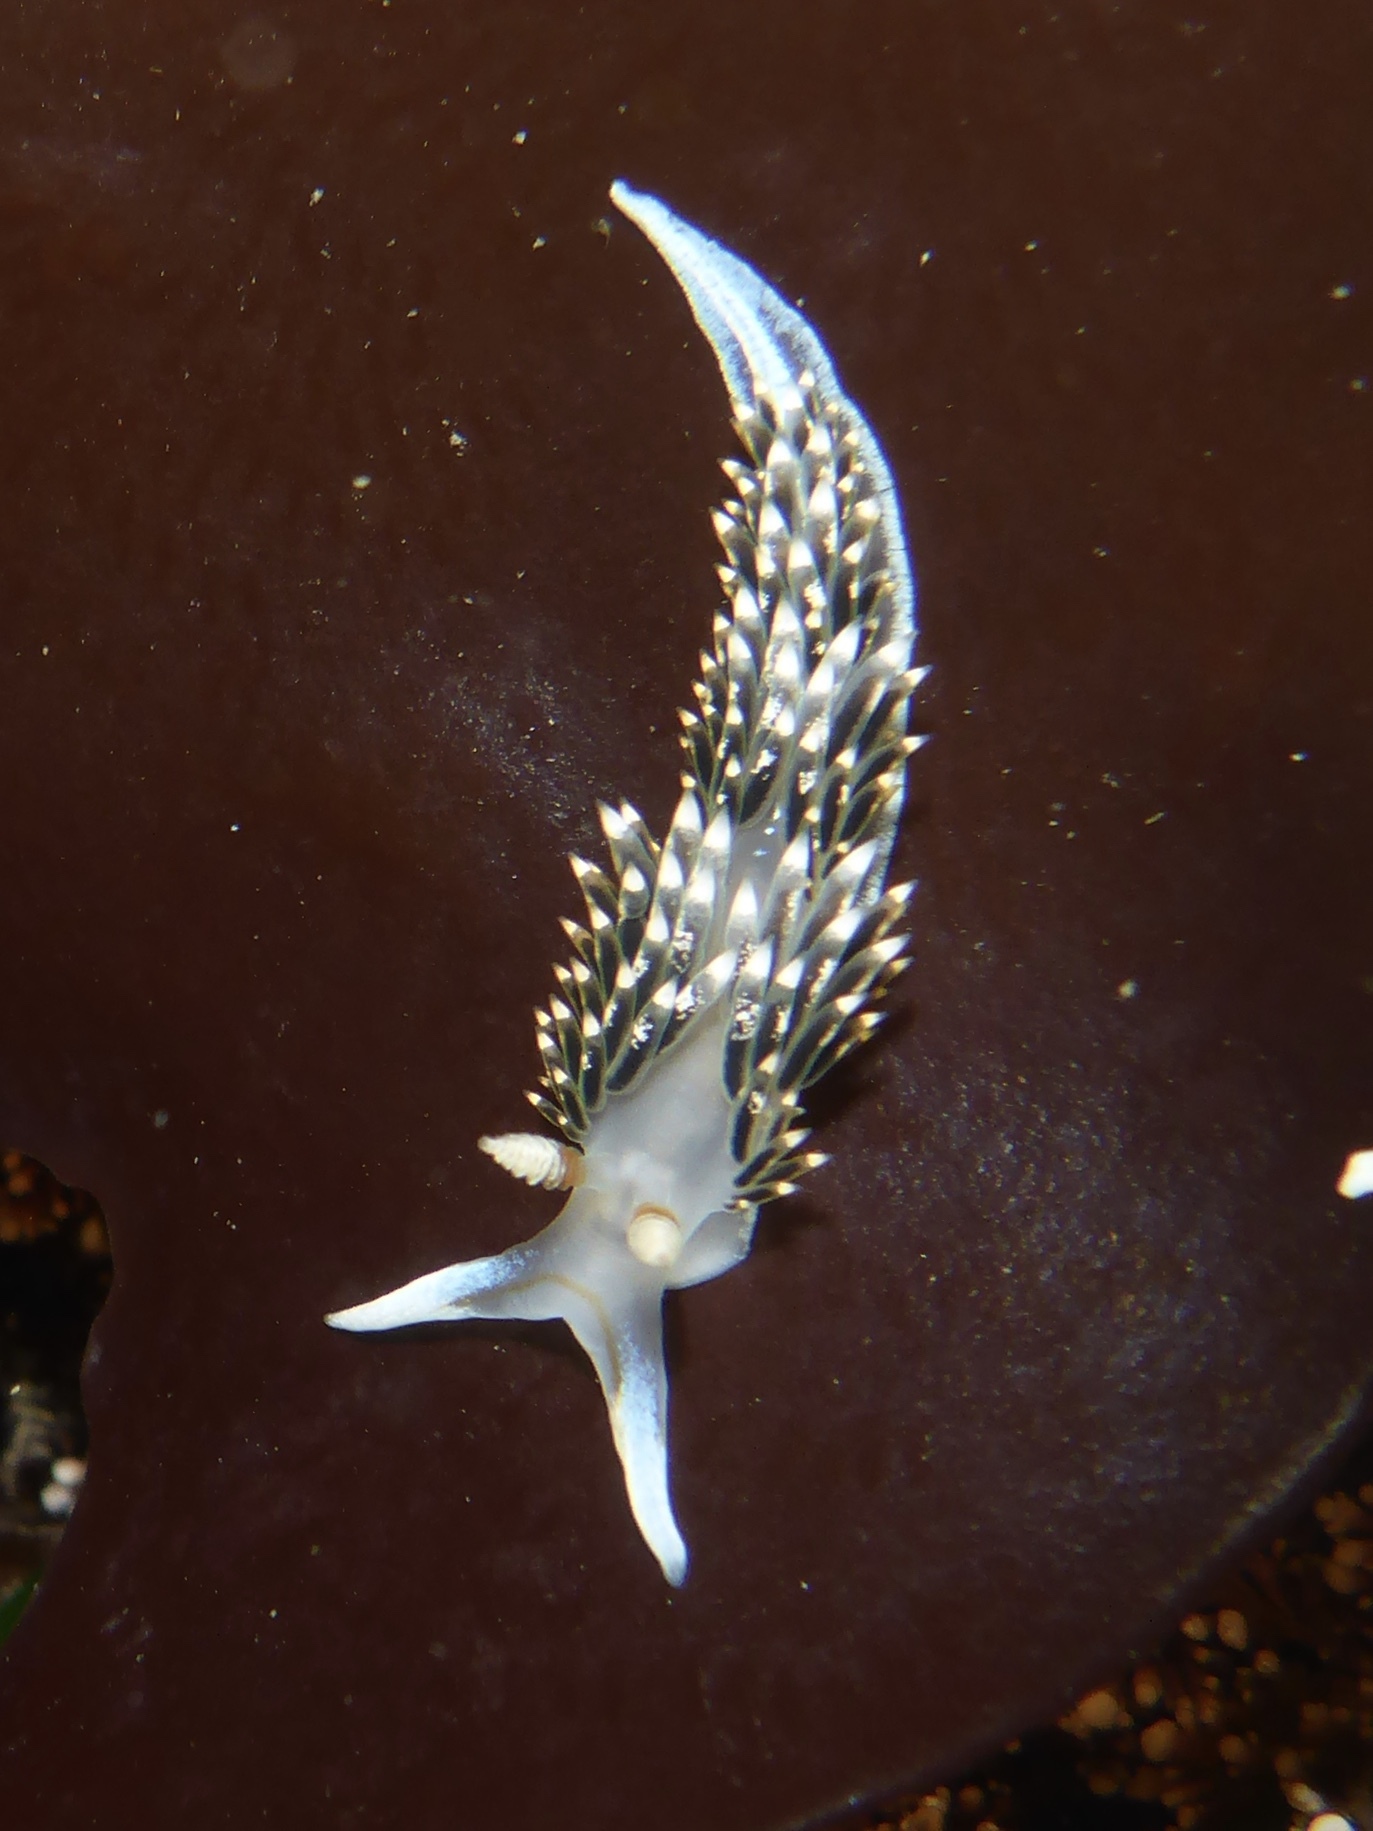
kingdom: Animalia
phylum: Mollusca
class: Gastropoda
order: Nudibranchia
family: Facelinidae
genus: Phidiana
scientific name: Phidiana hiltoni
